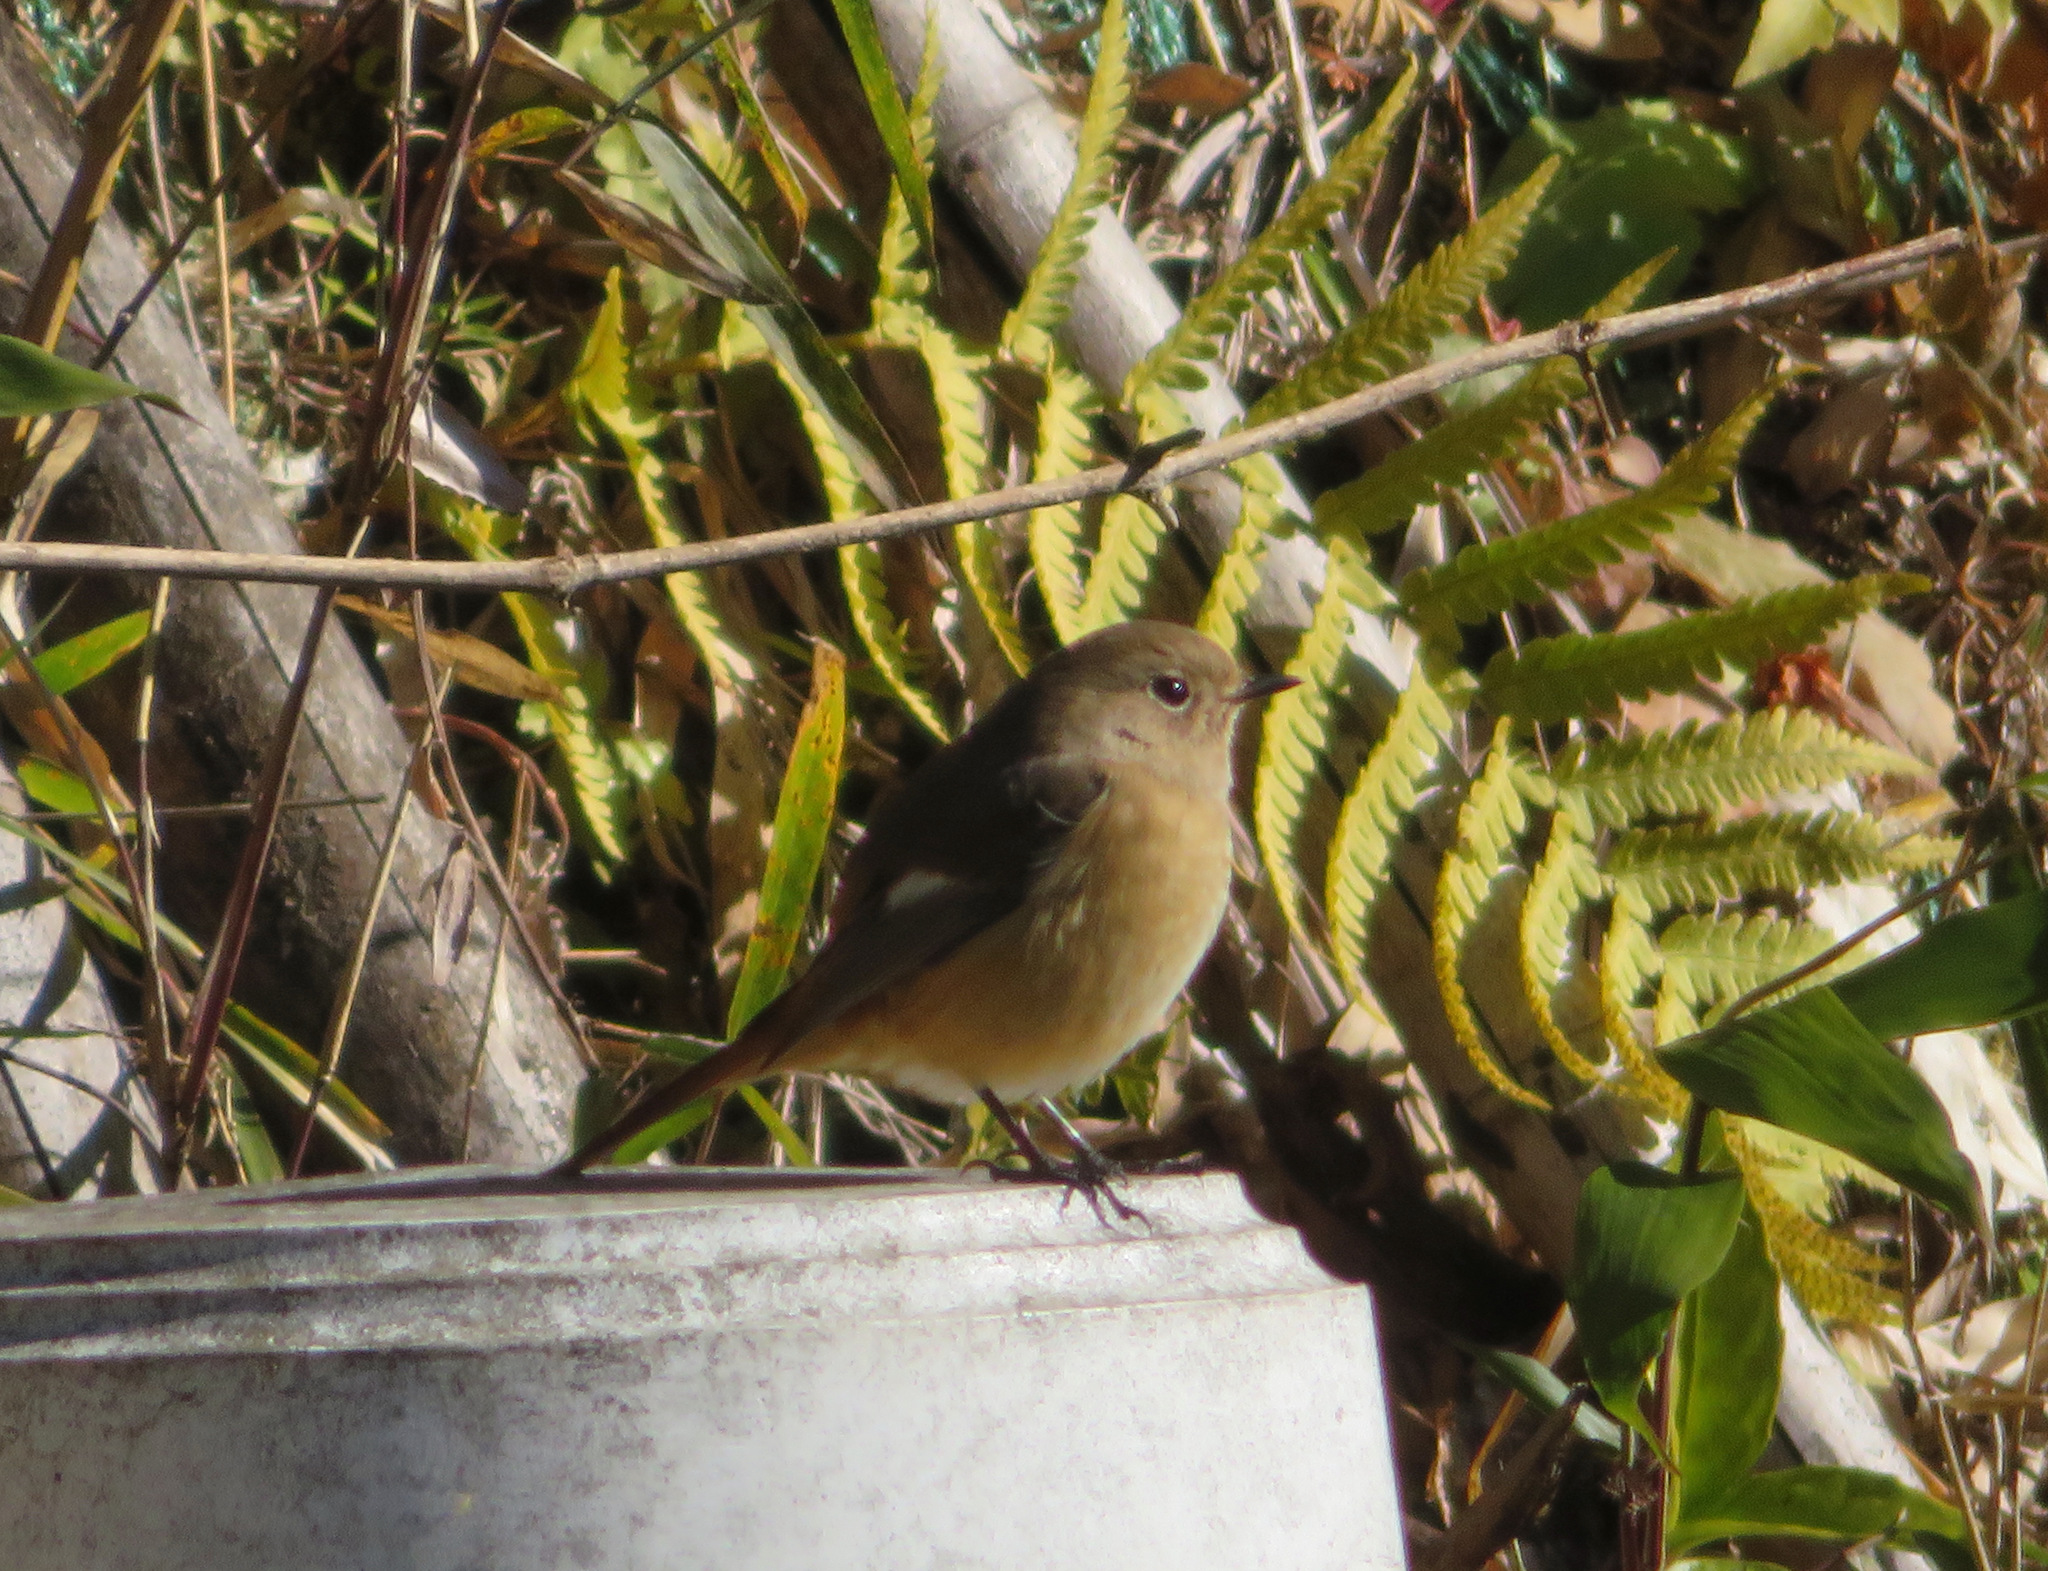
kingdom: Animalia
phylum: Chordata
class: Aves
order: Passeriformes
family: Muscicapidae
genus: Phoenicurus
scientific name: Phoenicurus auroreus
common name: Daurian redstart
